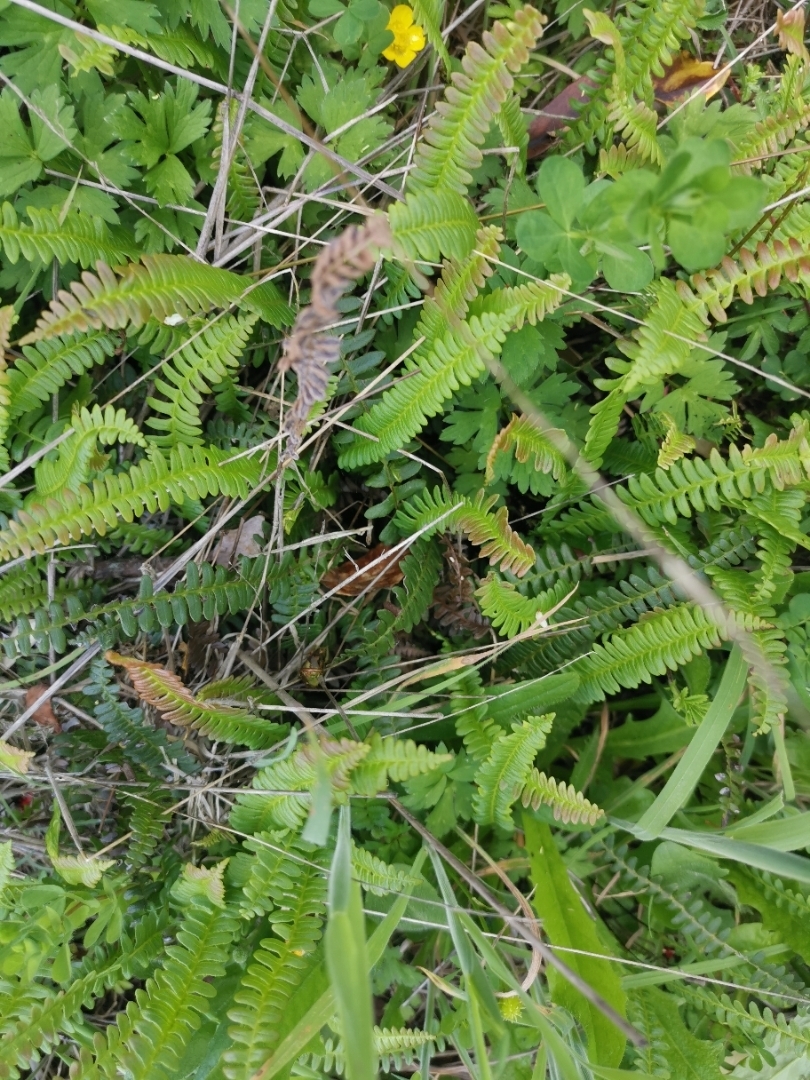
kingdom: Plantae
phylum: Tracheophyta
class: Polypodiopsida
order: Polypodiales
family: Blechnaceae
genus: Austroblechnum
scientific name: Austroblechnum penna-marina
